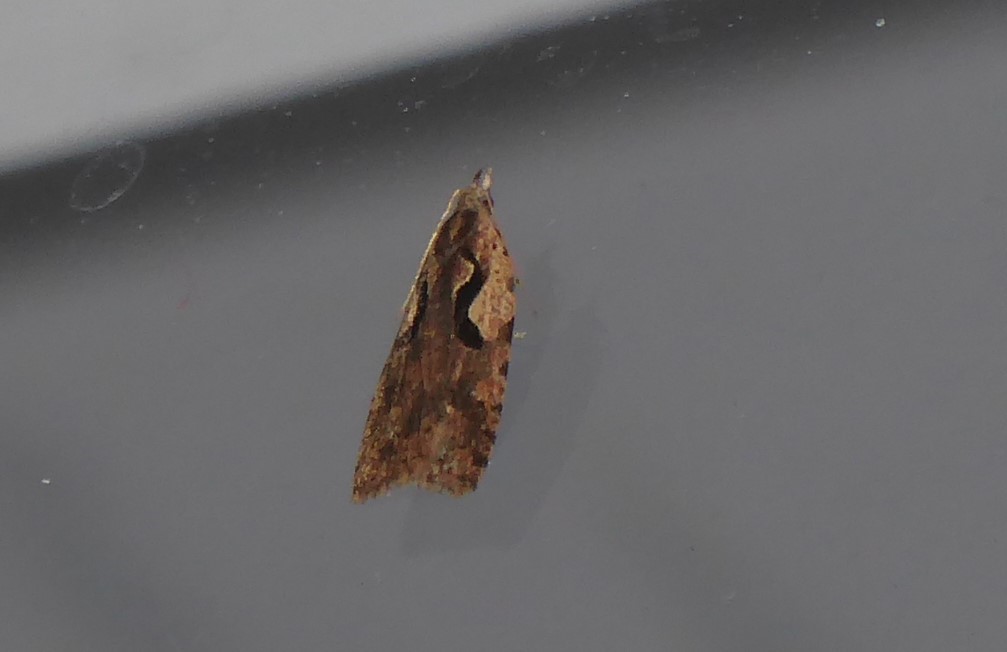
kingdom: Animalia
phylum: Arthropoda
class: Insecta
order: Lepidoptera
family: Tortricidae
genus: Cnephasia
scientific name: Cnephasia jactatana
